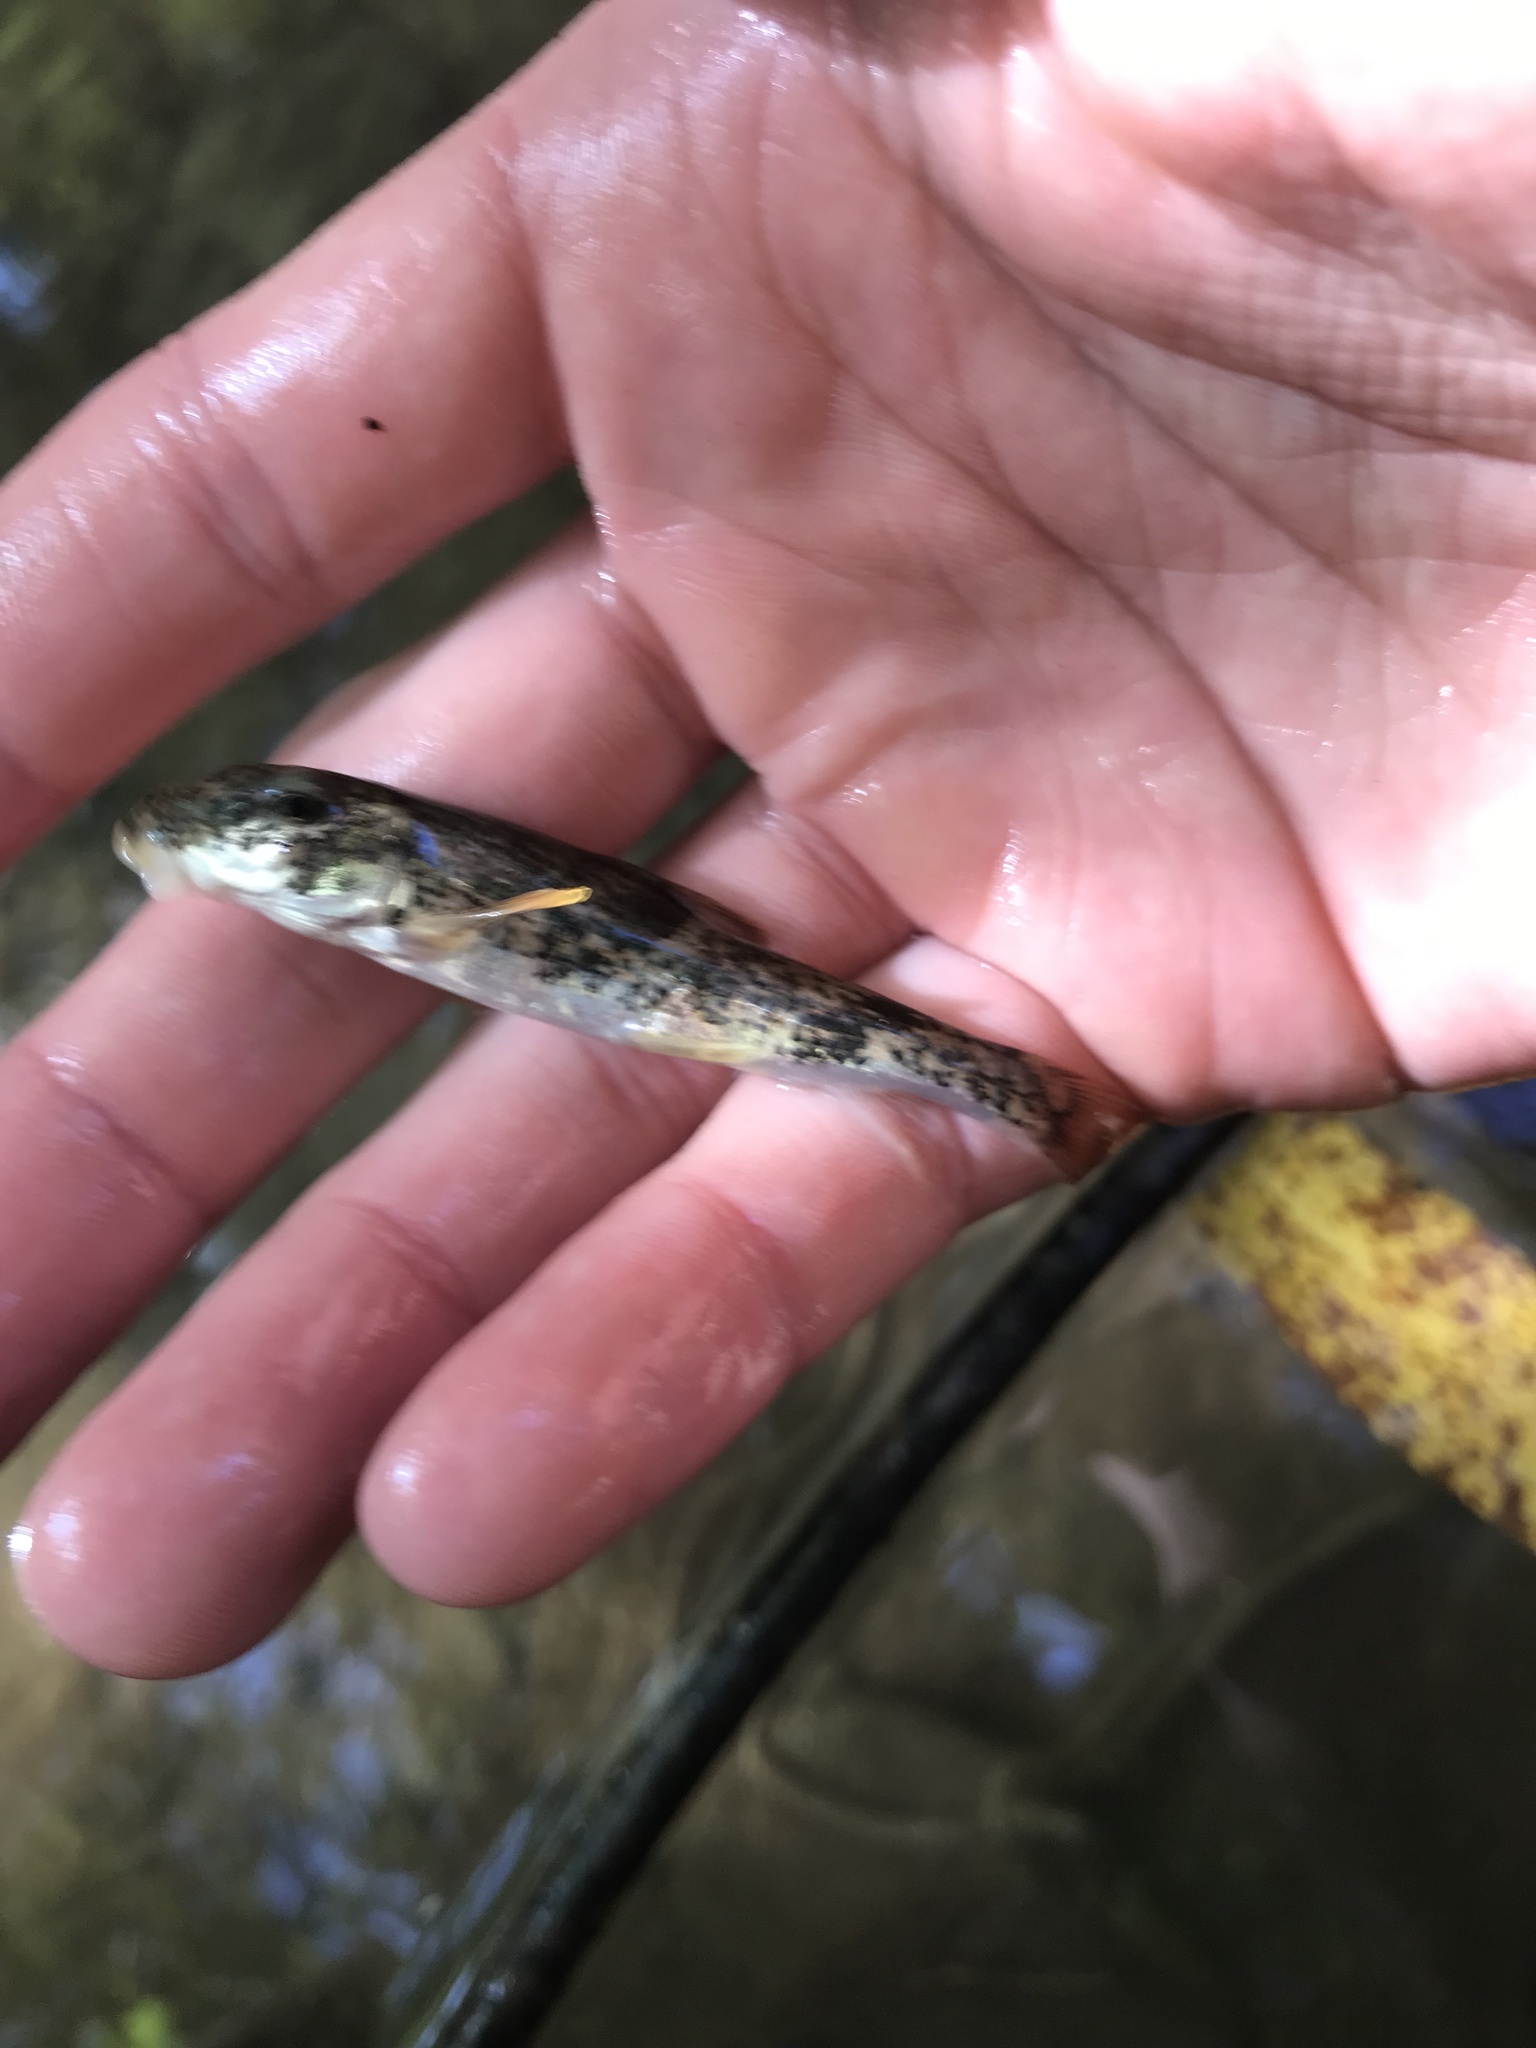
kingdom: Animalia
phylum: Chordata
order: Cypriniformes
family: Catostomidae
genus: Hypentelium
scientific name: Hypentelium nigricans
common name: Northern hog sucker
